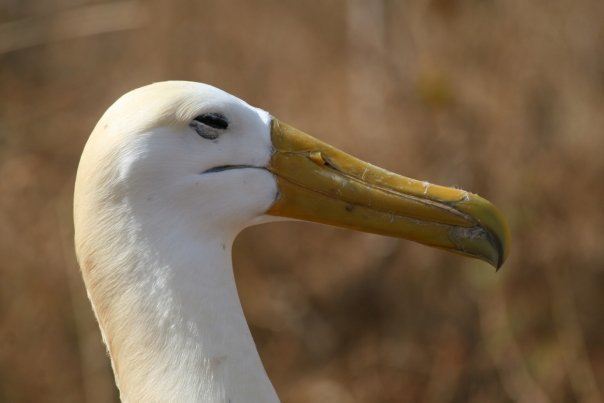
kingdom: Animalia
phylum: Chordata
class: Aves
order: Procellariiformes
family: Diomedeidae
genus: Phoebastria
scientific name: Phoebastria irrorata
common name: Waved albatross
